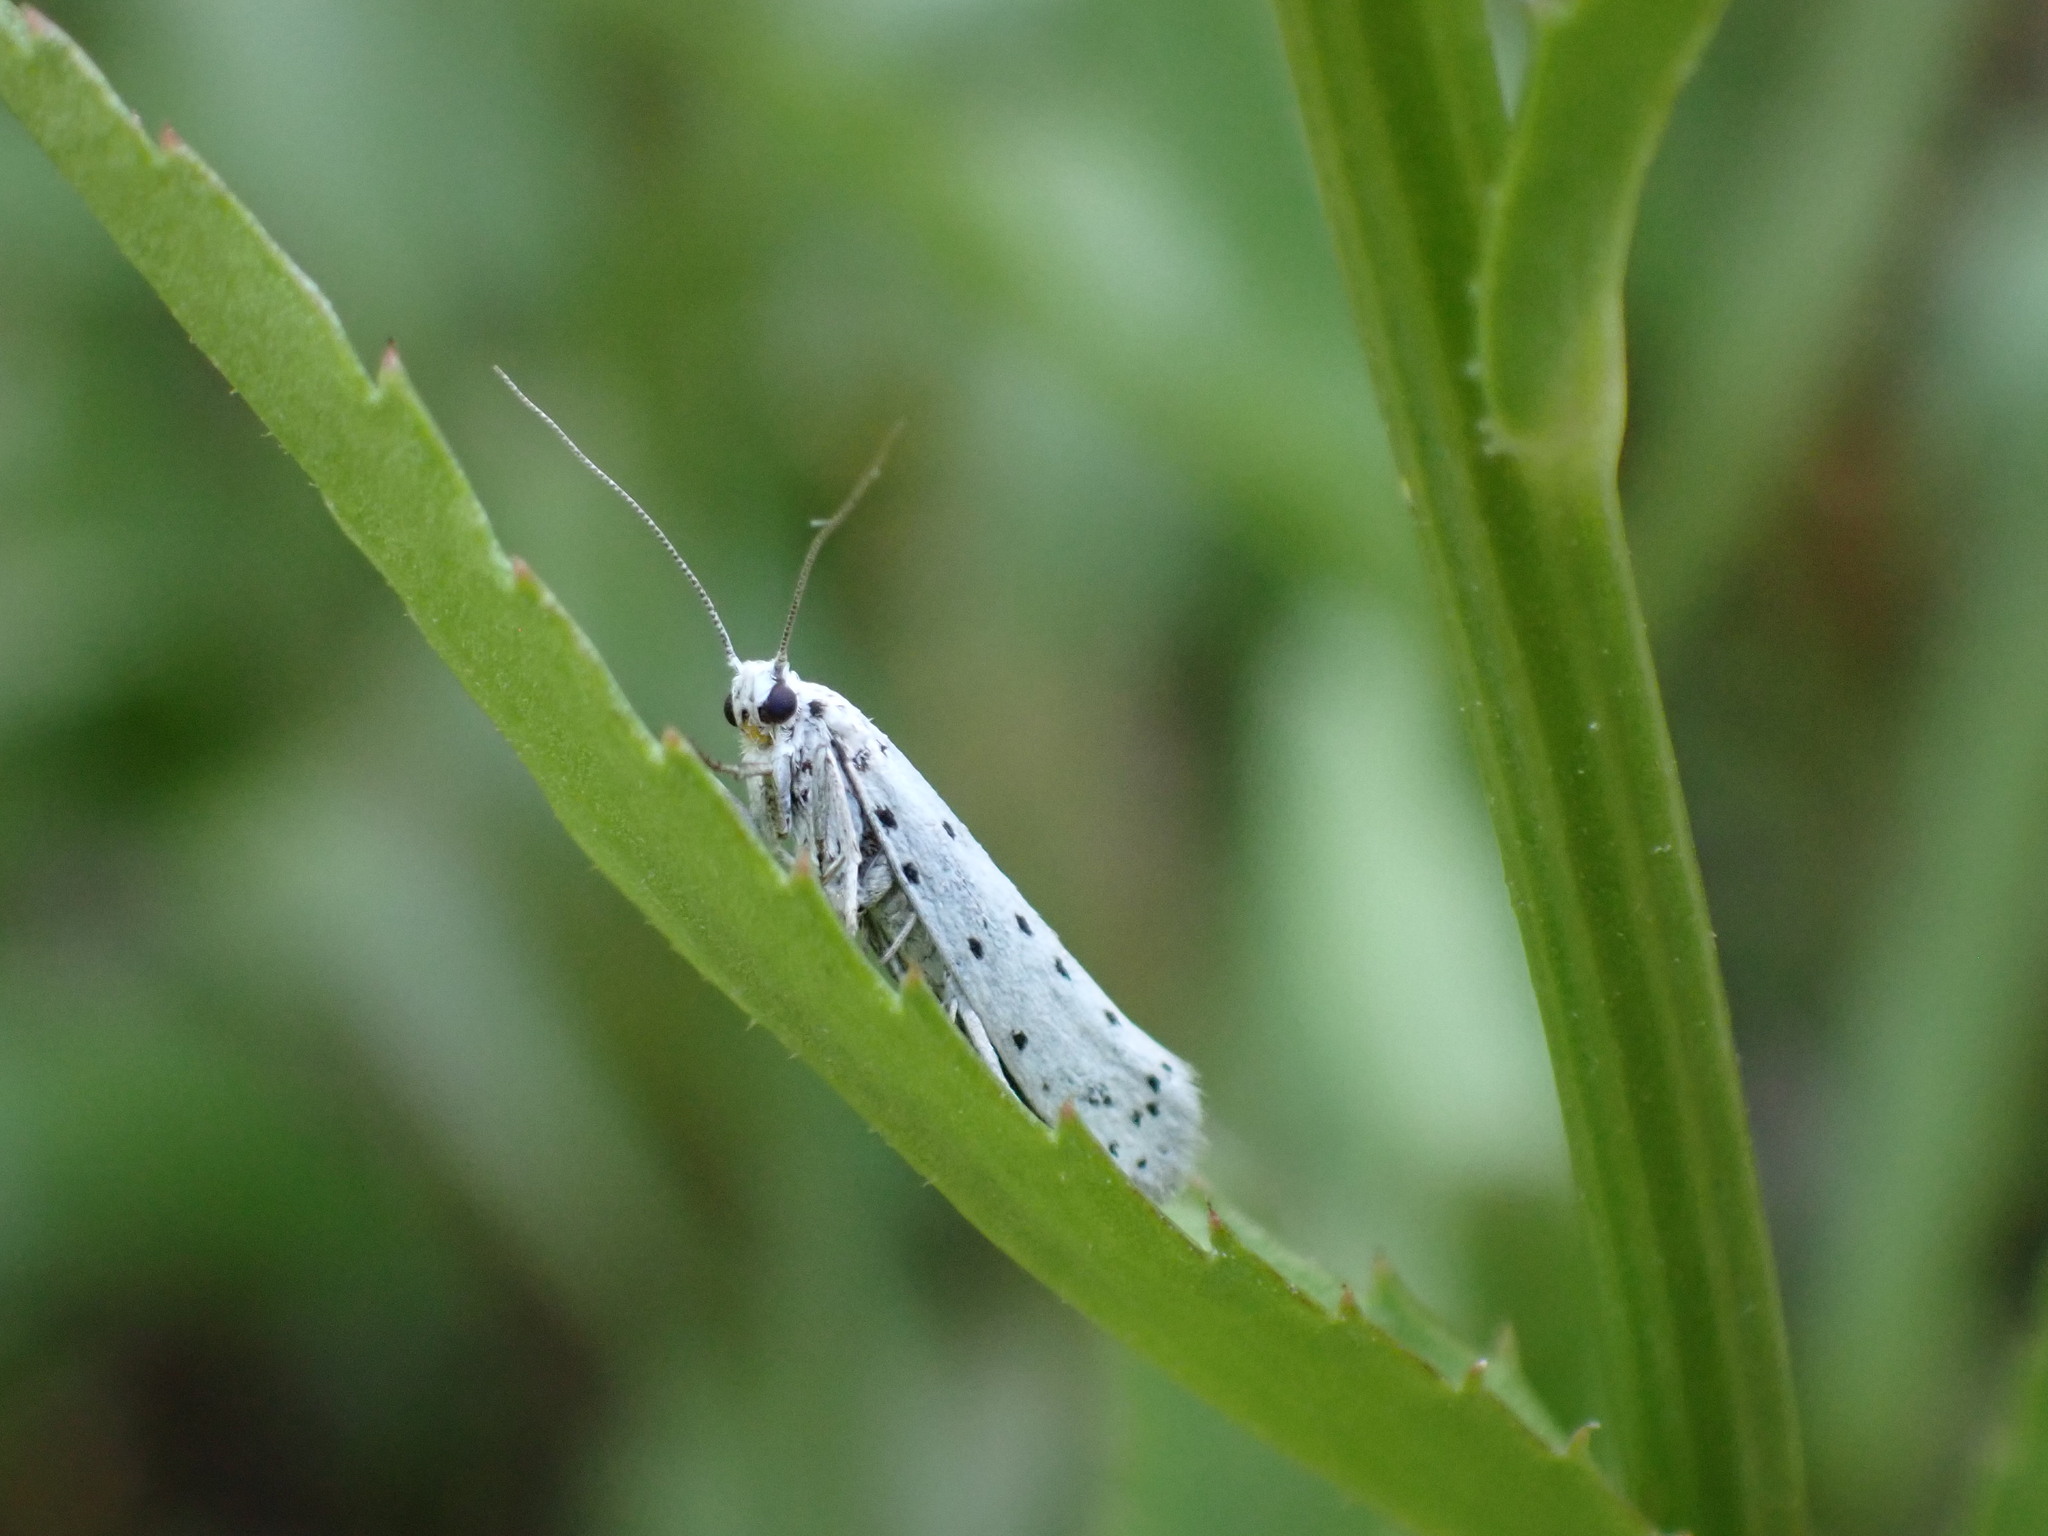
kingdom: Animalia
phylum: Arthropoda
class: Insecta
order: Lepidoptera
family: Yponomeutidae
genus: Yponomeuta
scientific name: Yponomeuta
